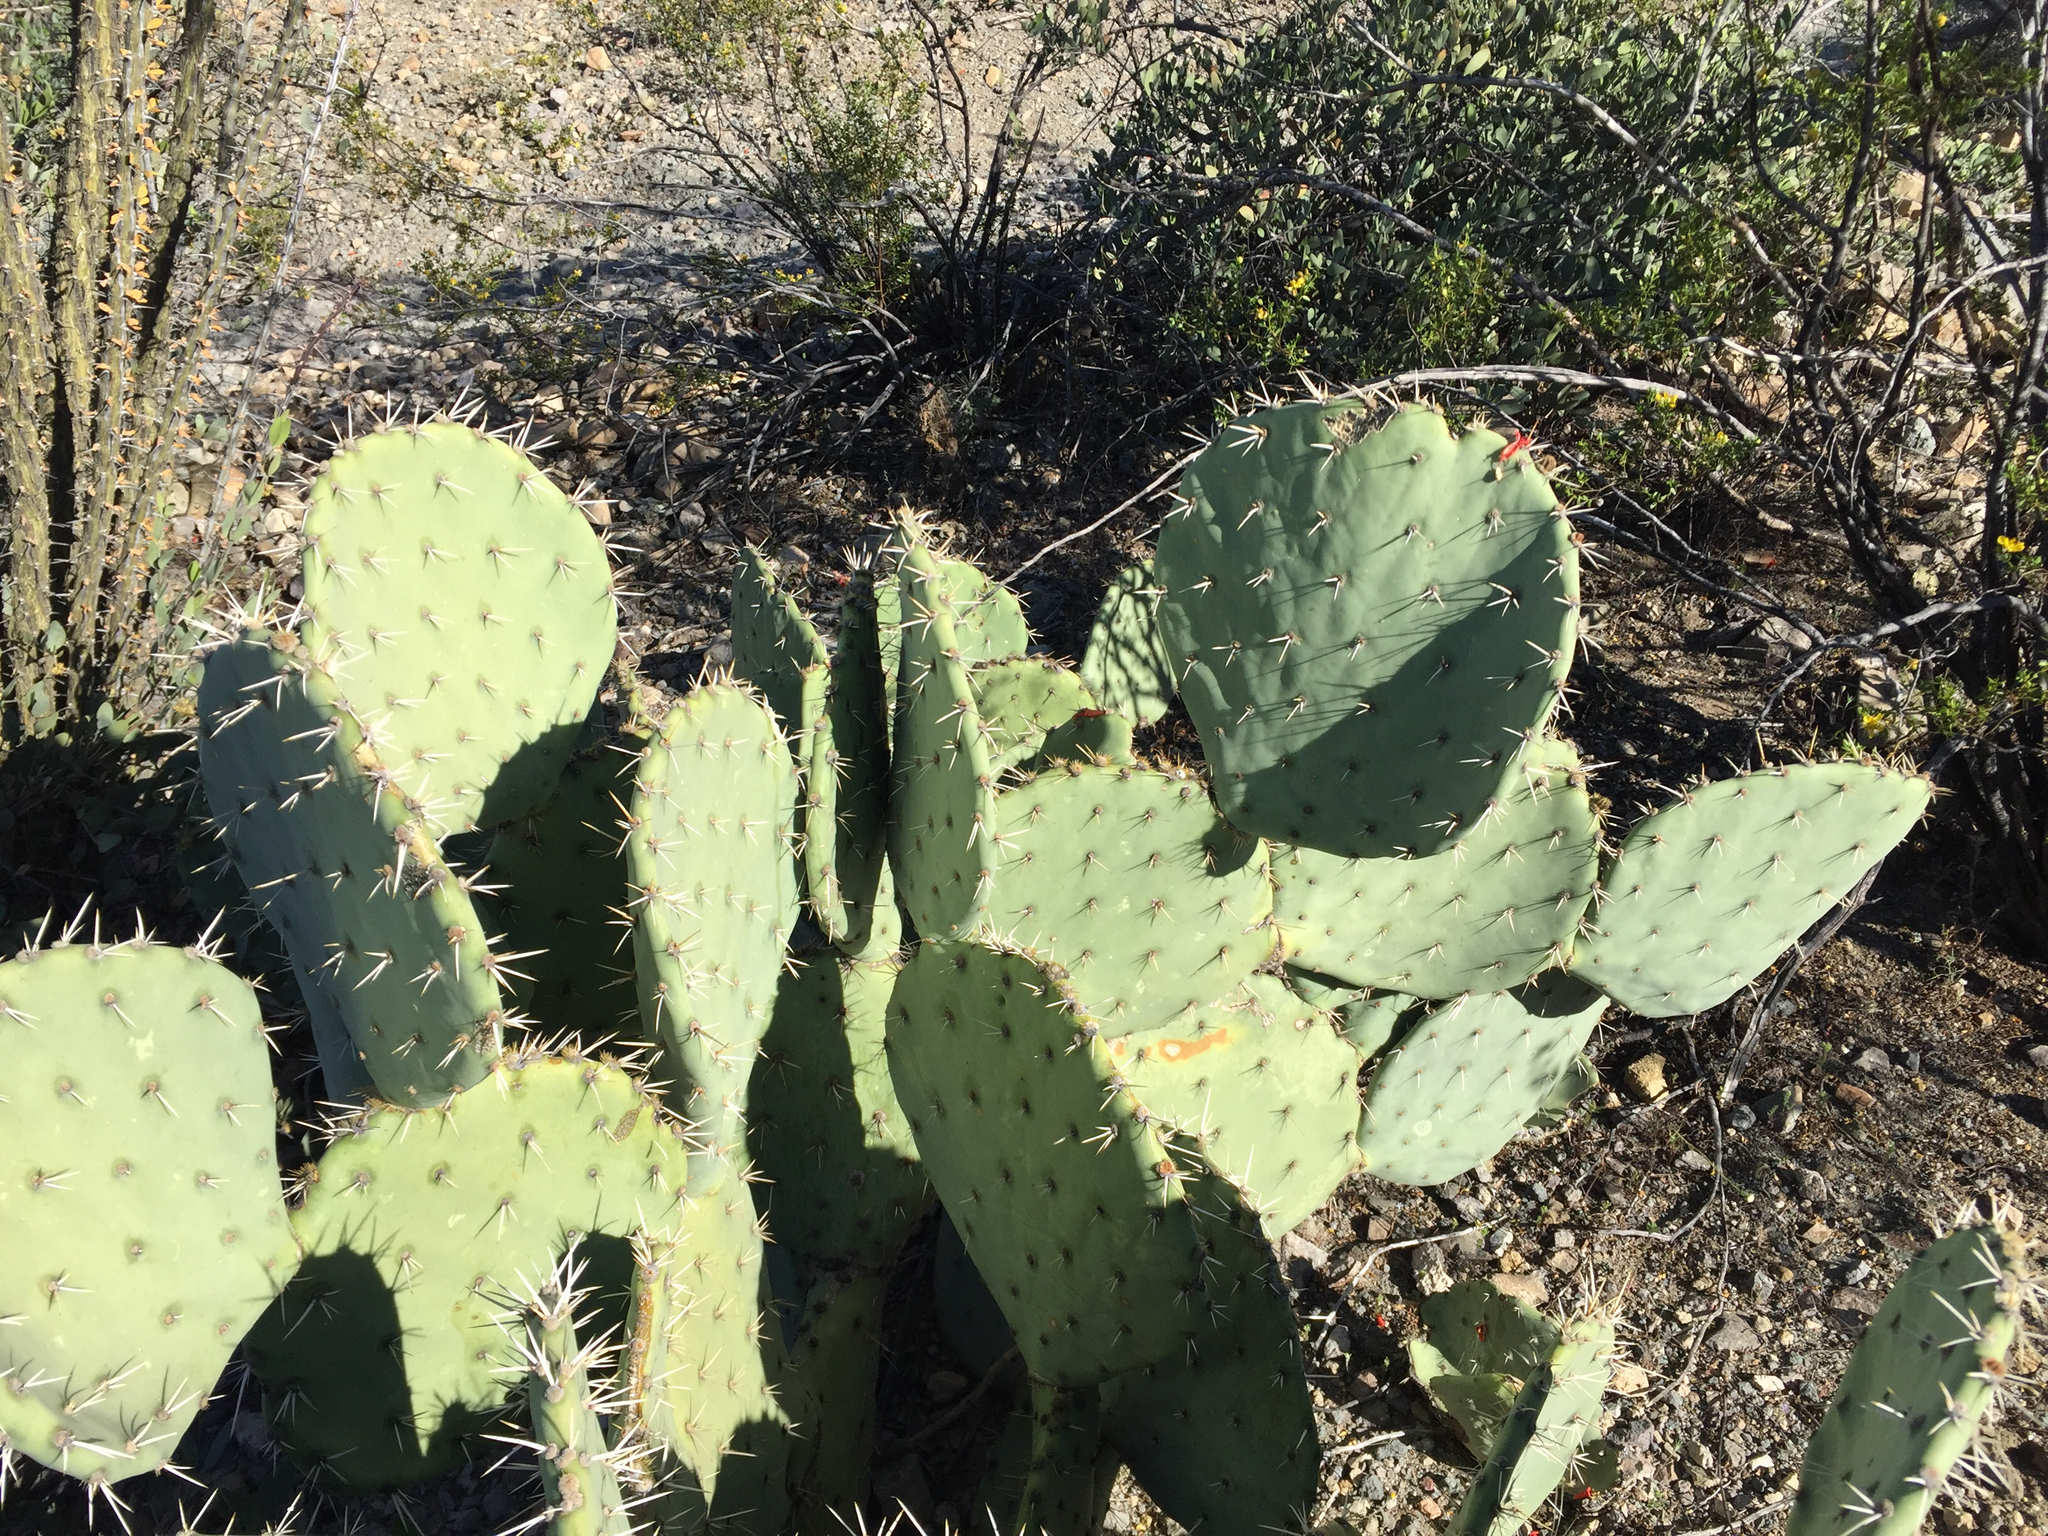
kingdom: Plantae
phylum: Tracheophyta
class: Magnoliopsida
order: Caryophyllales
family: Cactaceae
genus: Opuntia
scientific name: Opuntia engelmannii
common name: Cactus-apple
